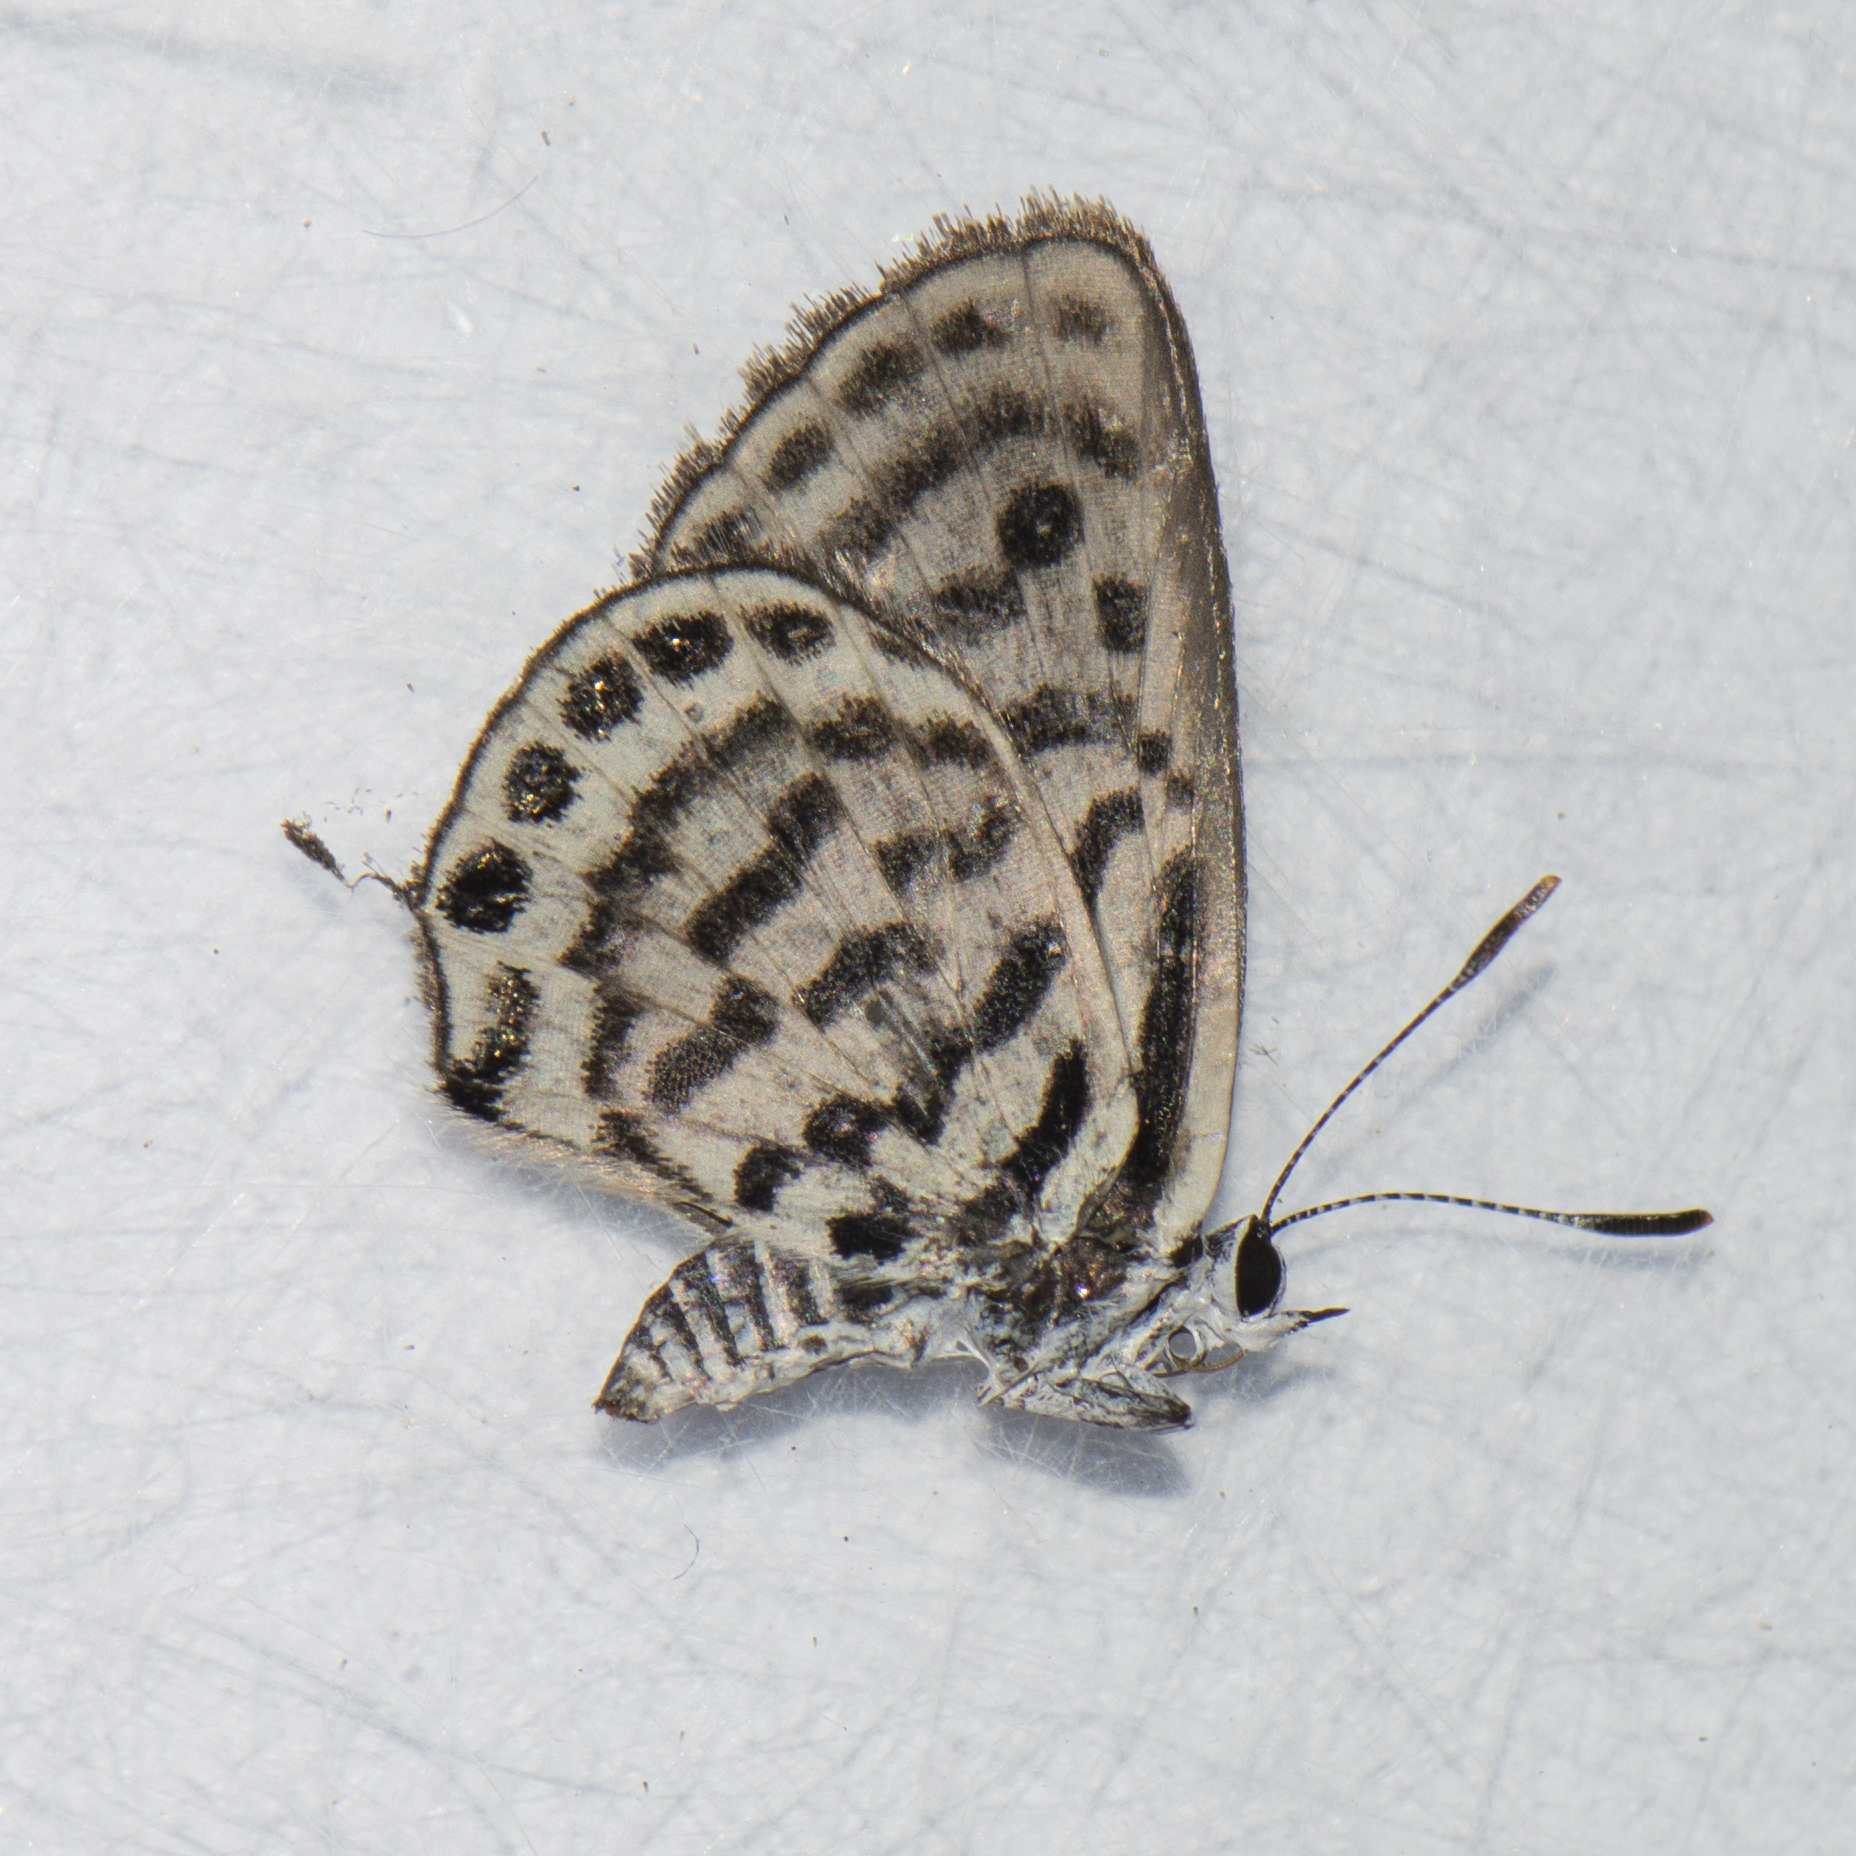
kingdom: Animalia
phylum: Arthropoda
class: Insecta
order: Lepidoptera
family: Lycaenidae
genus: Tarucus
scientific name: Tarucus balkanica
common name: Little tiger blue
